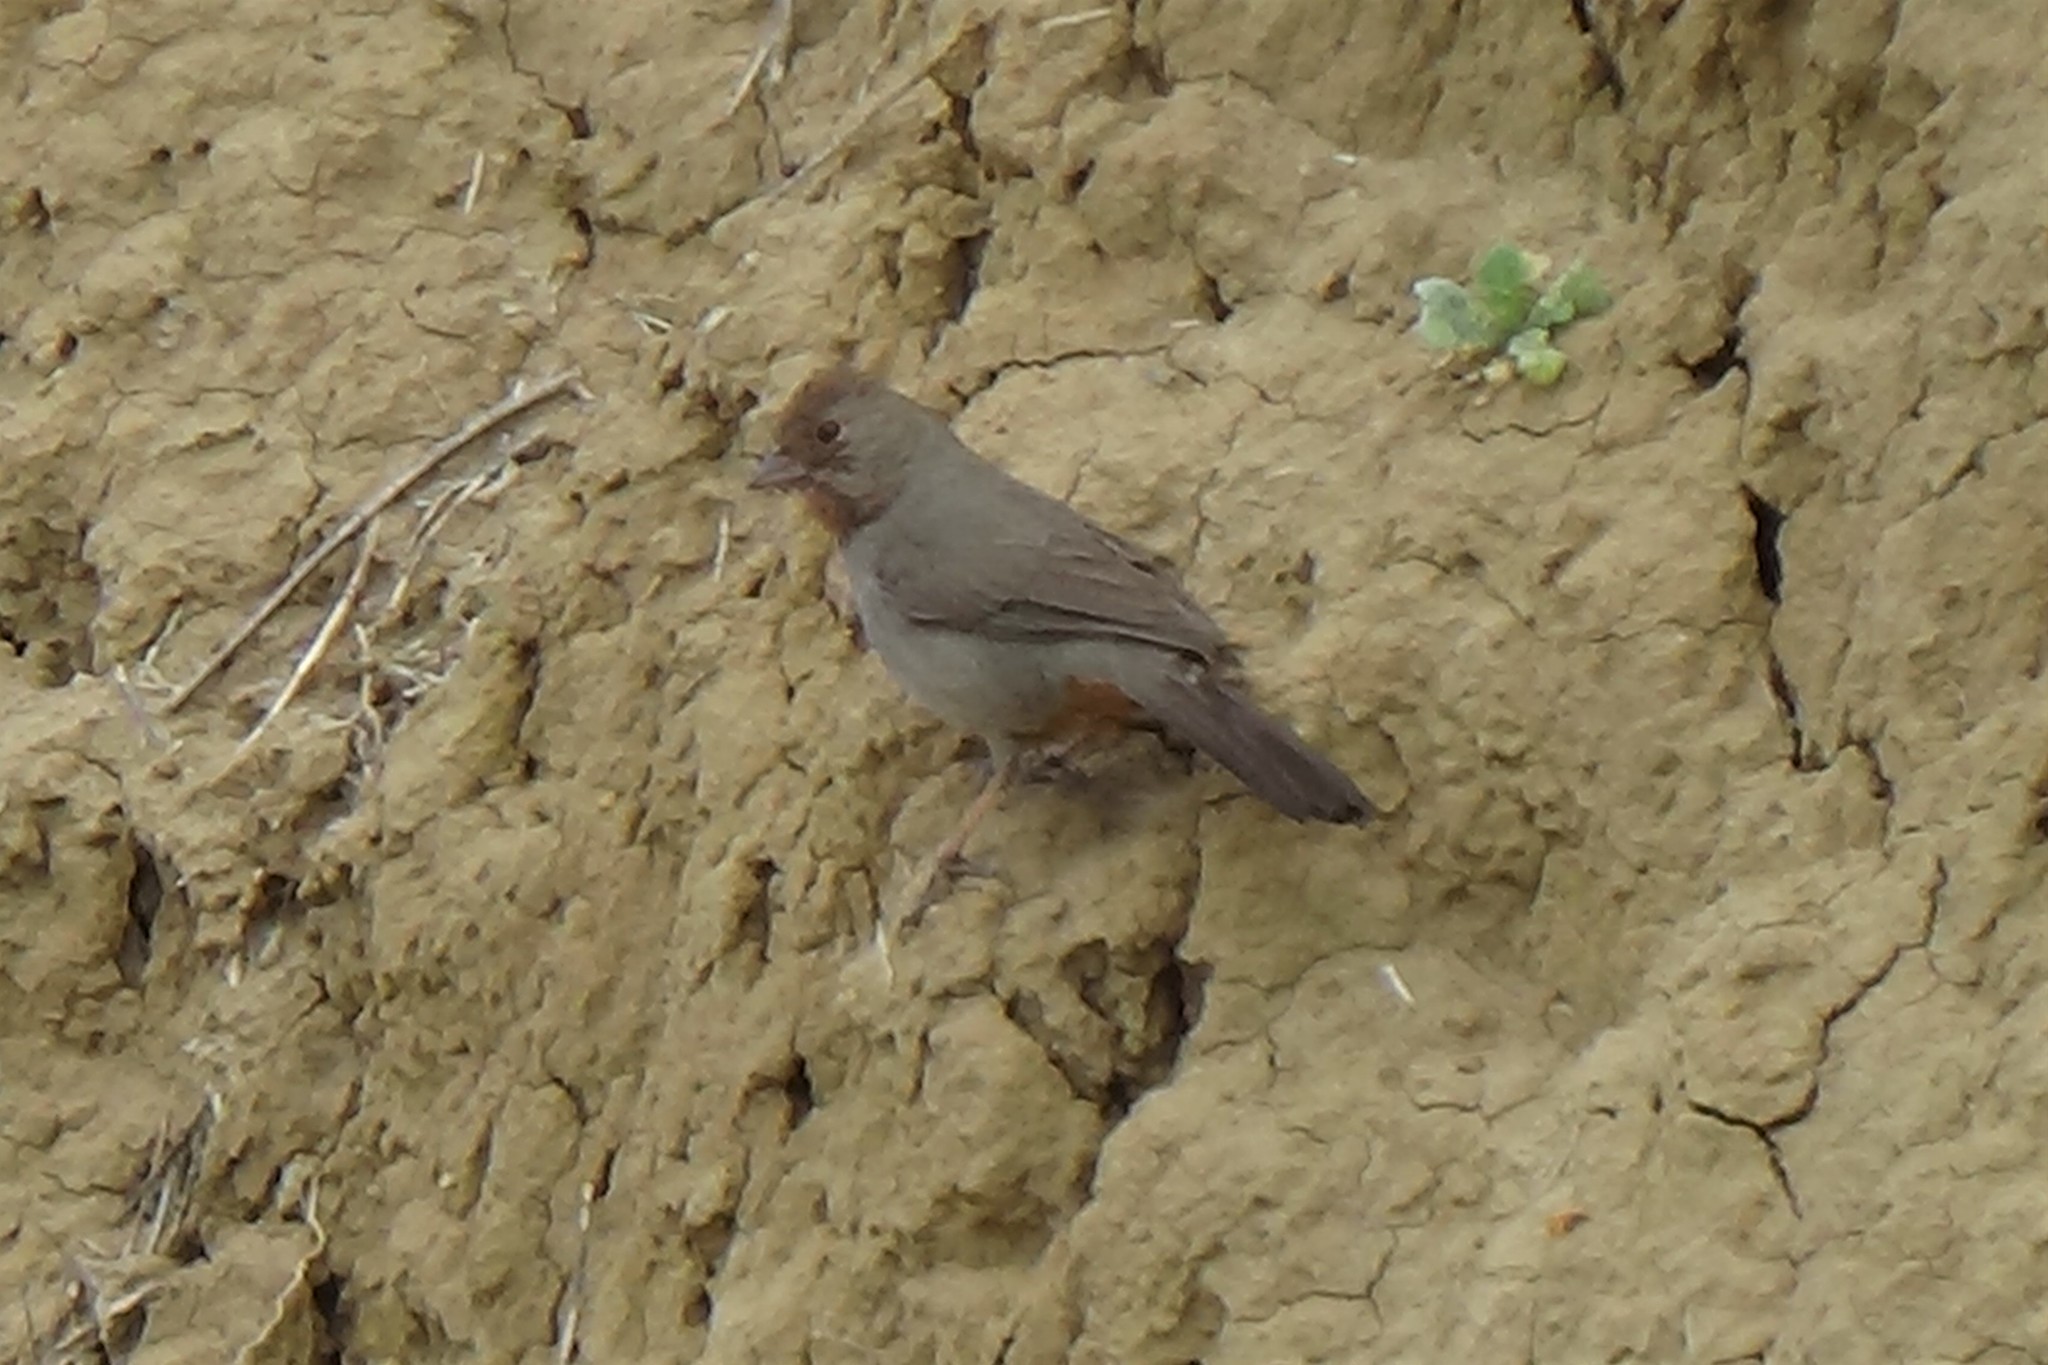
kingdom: Animalia
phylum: Chordata
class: Aves
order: Passeriformes
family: Passerellidae
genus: Melozone
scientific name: Melozone crissalis
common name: California towhee
